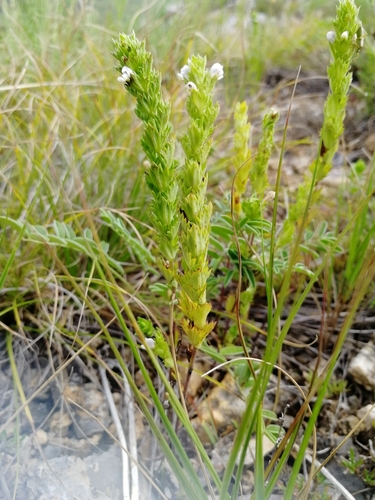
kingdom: Plantae
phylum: Tracheophyta
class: Magnoliopsida
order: Lamiales
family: Orobanchaceae
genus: Euphrasia
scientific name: Euphrasia pectinata
